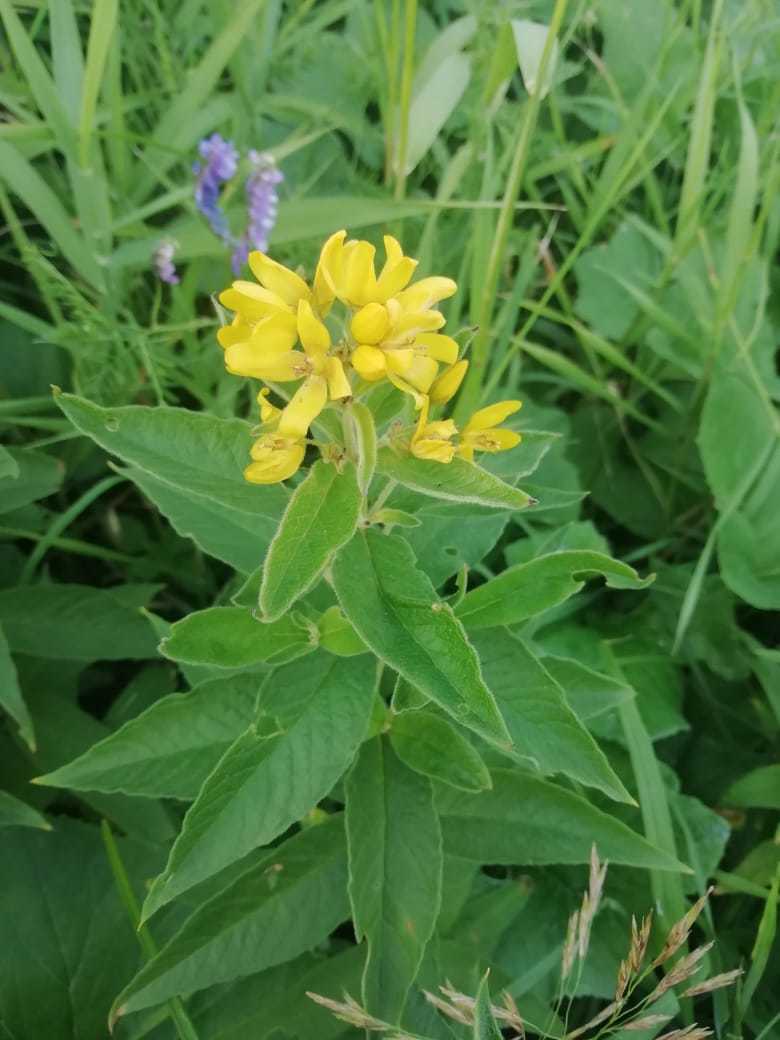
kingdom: Plantae
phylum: Tracheophyta
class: Magnoliopsida
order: Ericales
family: Primulaceae
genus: Lysimachia
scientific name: Lysimachia vulgaris
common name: Yellow loosestrife
